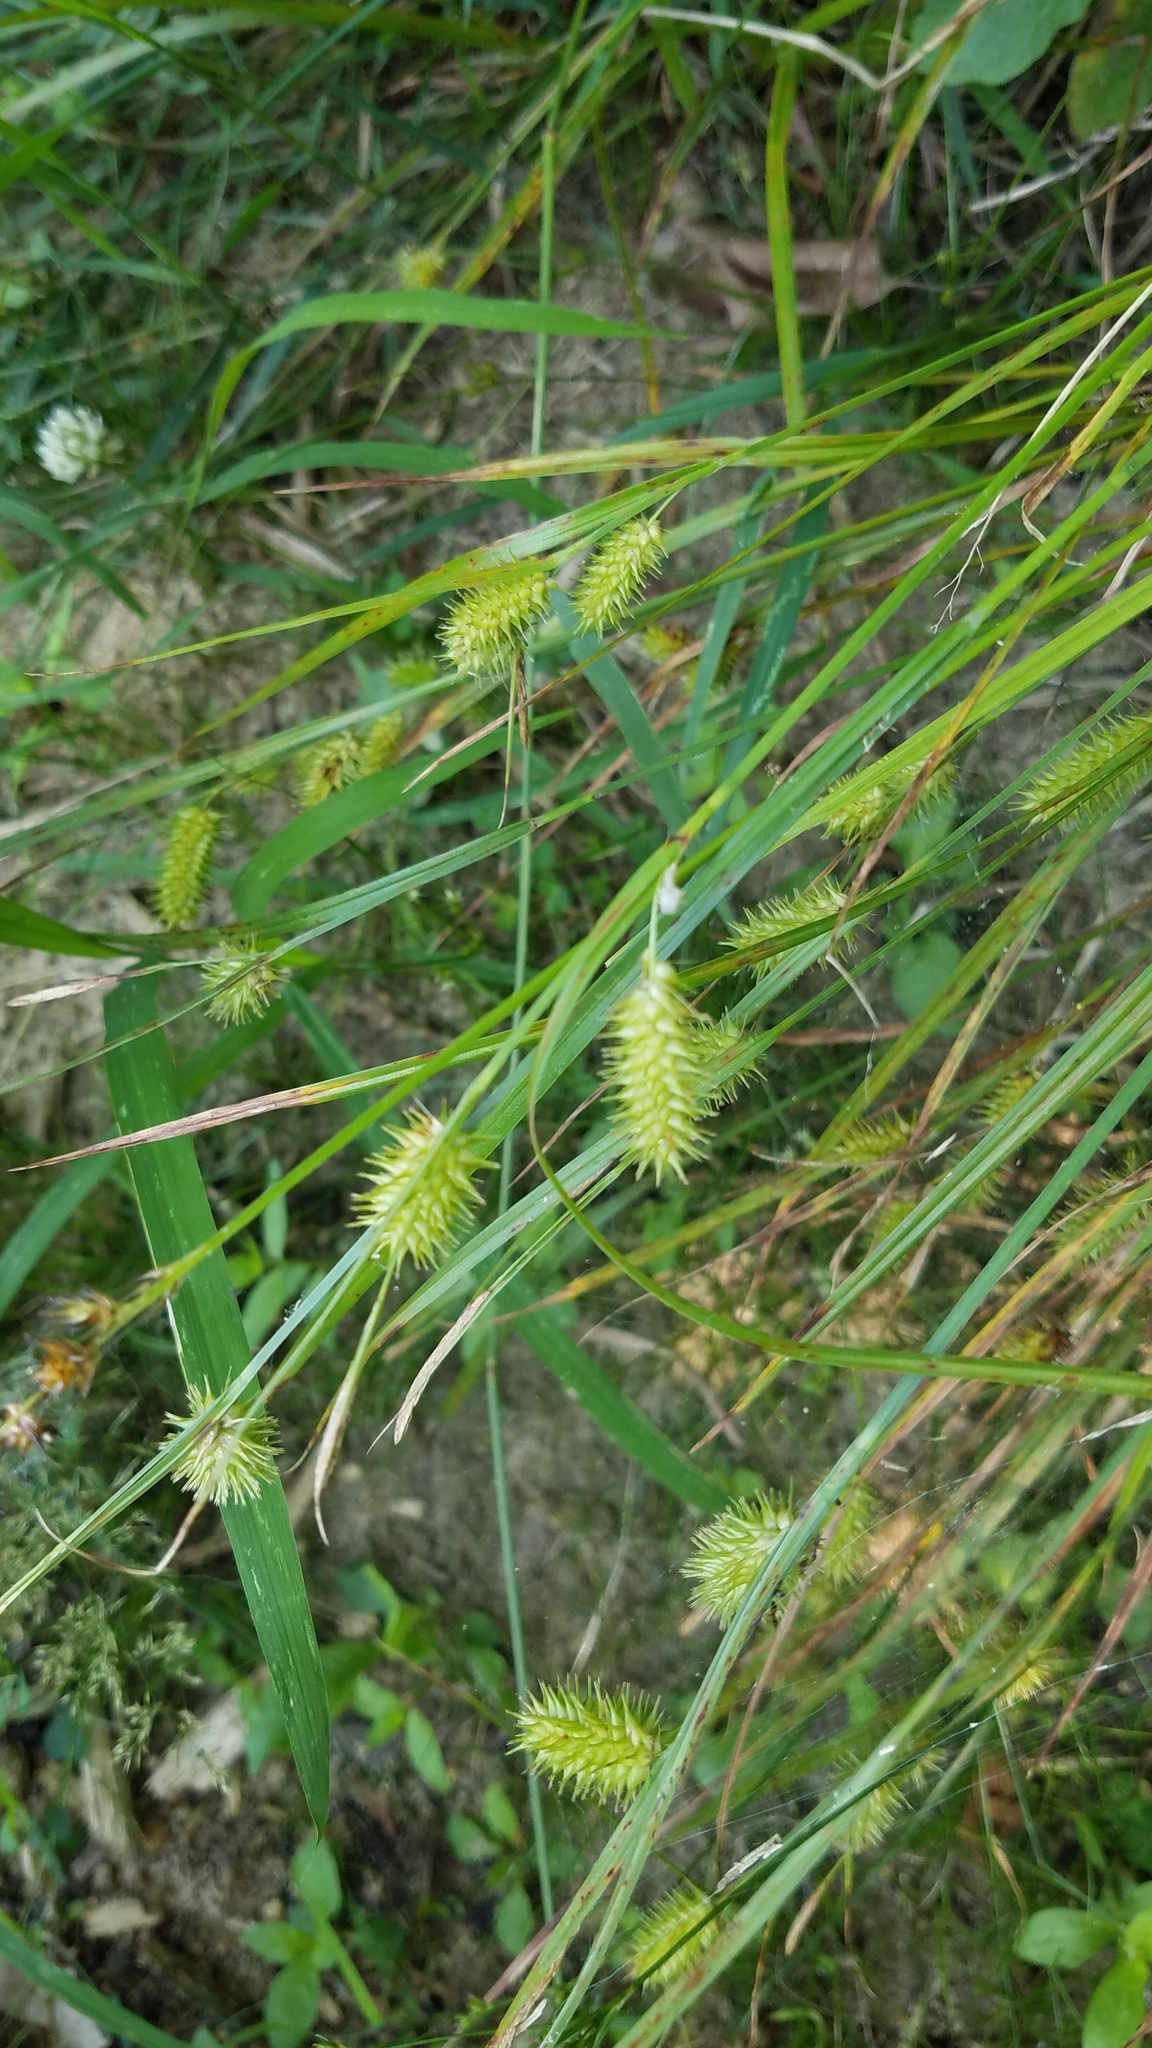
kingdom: Plantae
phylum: Tracheophyta
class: Liliopsida
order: Poales
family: Cyperaceae
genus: Carex
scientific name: Carex hystericina
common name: Bottlebrush sedge
